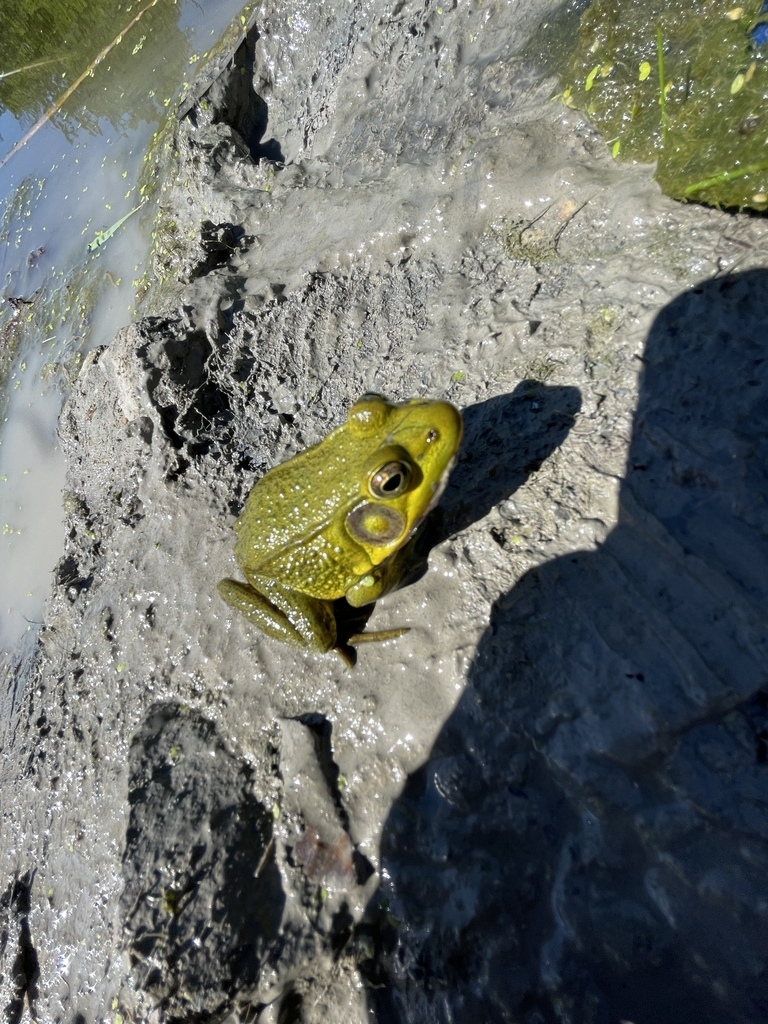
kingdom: Animalia
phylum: Chordata
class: Amphibia
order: Anura
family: Ranidae
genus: Lithobates
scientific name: Lithobates clamitans
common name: Green frog
